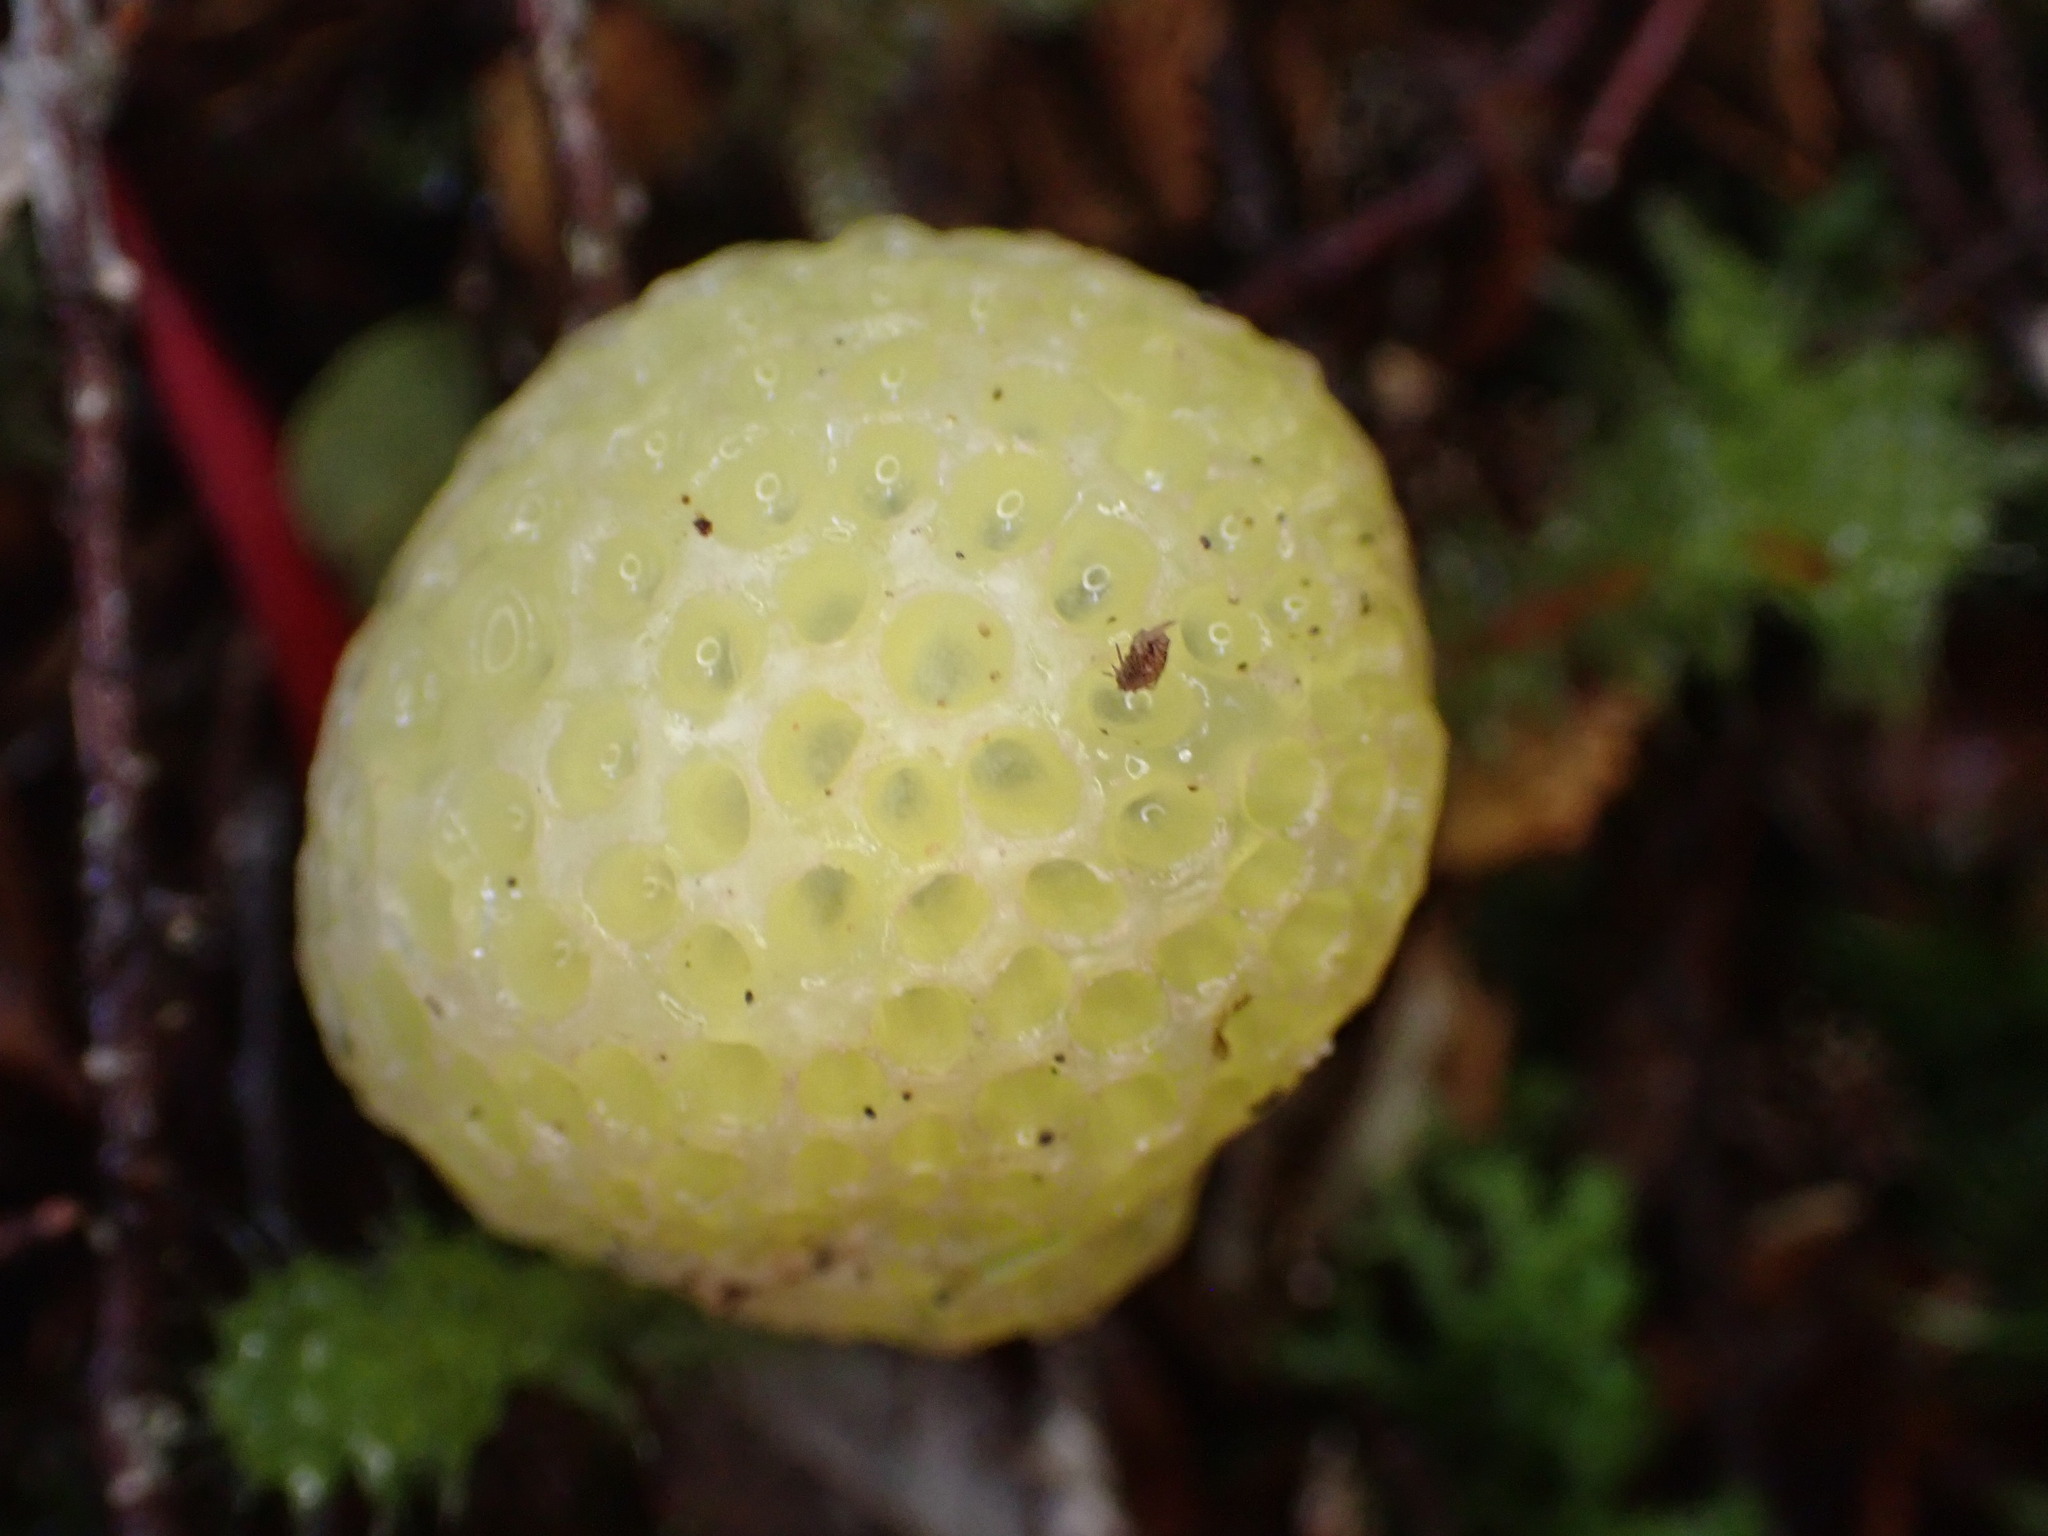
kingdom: Fungi
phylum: Ascomycota
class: Leotiomycetes
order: Cyttariales
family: Cyttariaceae
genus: Cyttaria
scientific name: Cyttaria gunnii
